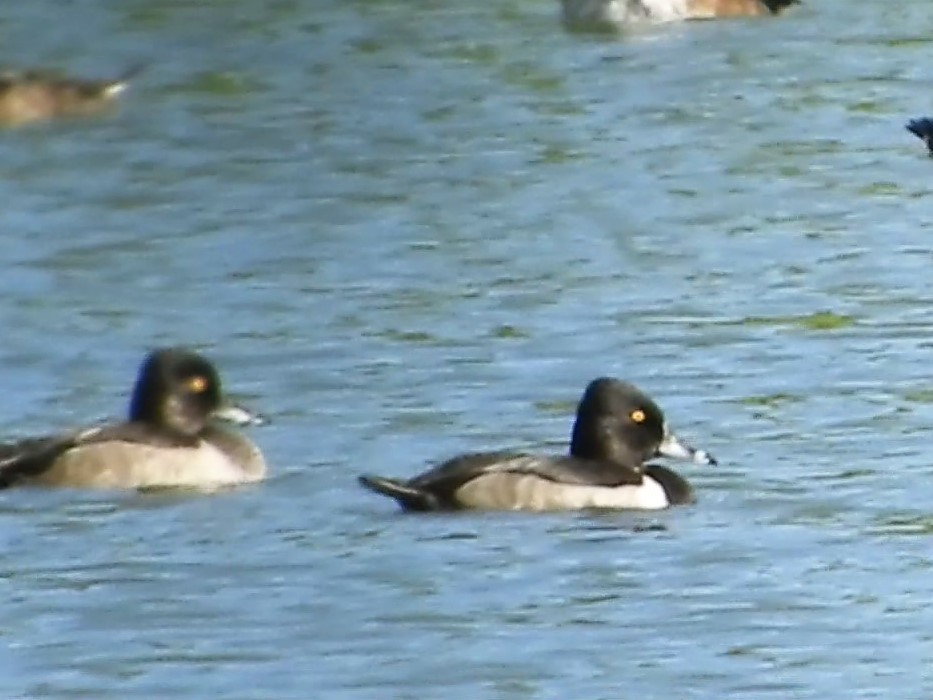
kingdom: Animalia
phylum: Chordata
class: Aves
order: Anseriformes
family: Anatidae
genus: Aythya
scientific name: Aythya collaris
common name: Ring-necked duck
